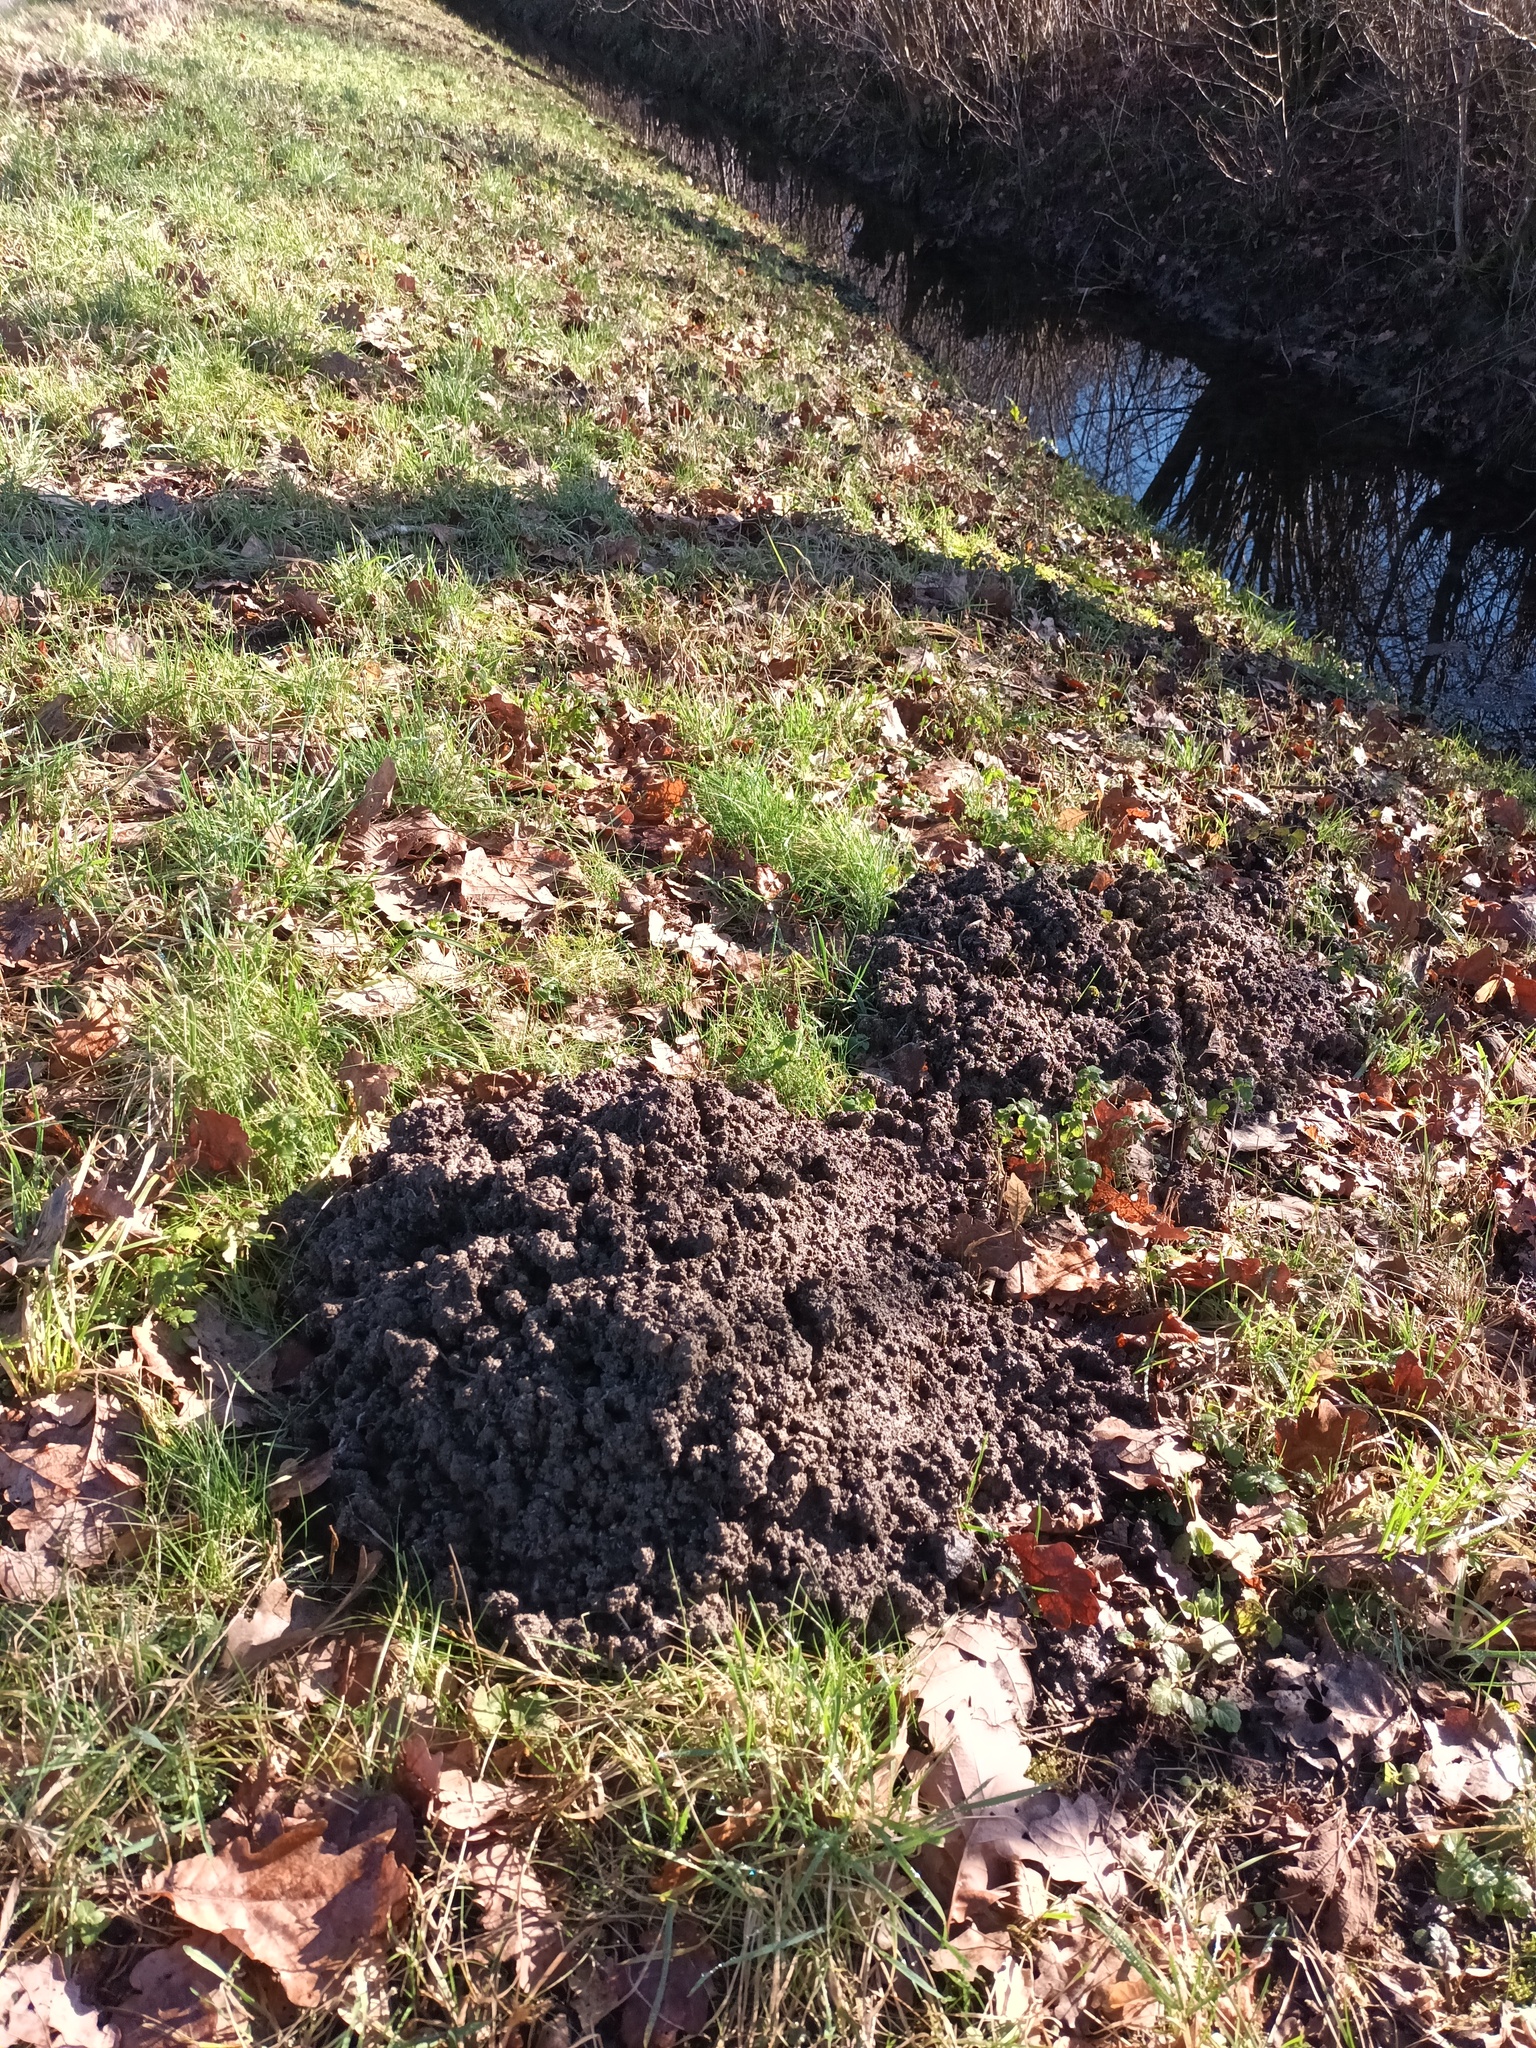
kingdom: Animalia
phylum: Chordata
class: Mammalia
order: Soricomorpha
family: Talpidae
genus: Talpa
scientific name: Talpa europaea
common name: European mole
